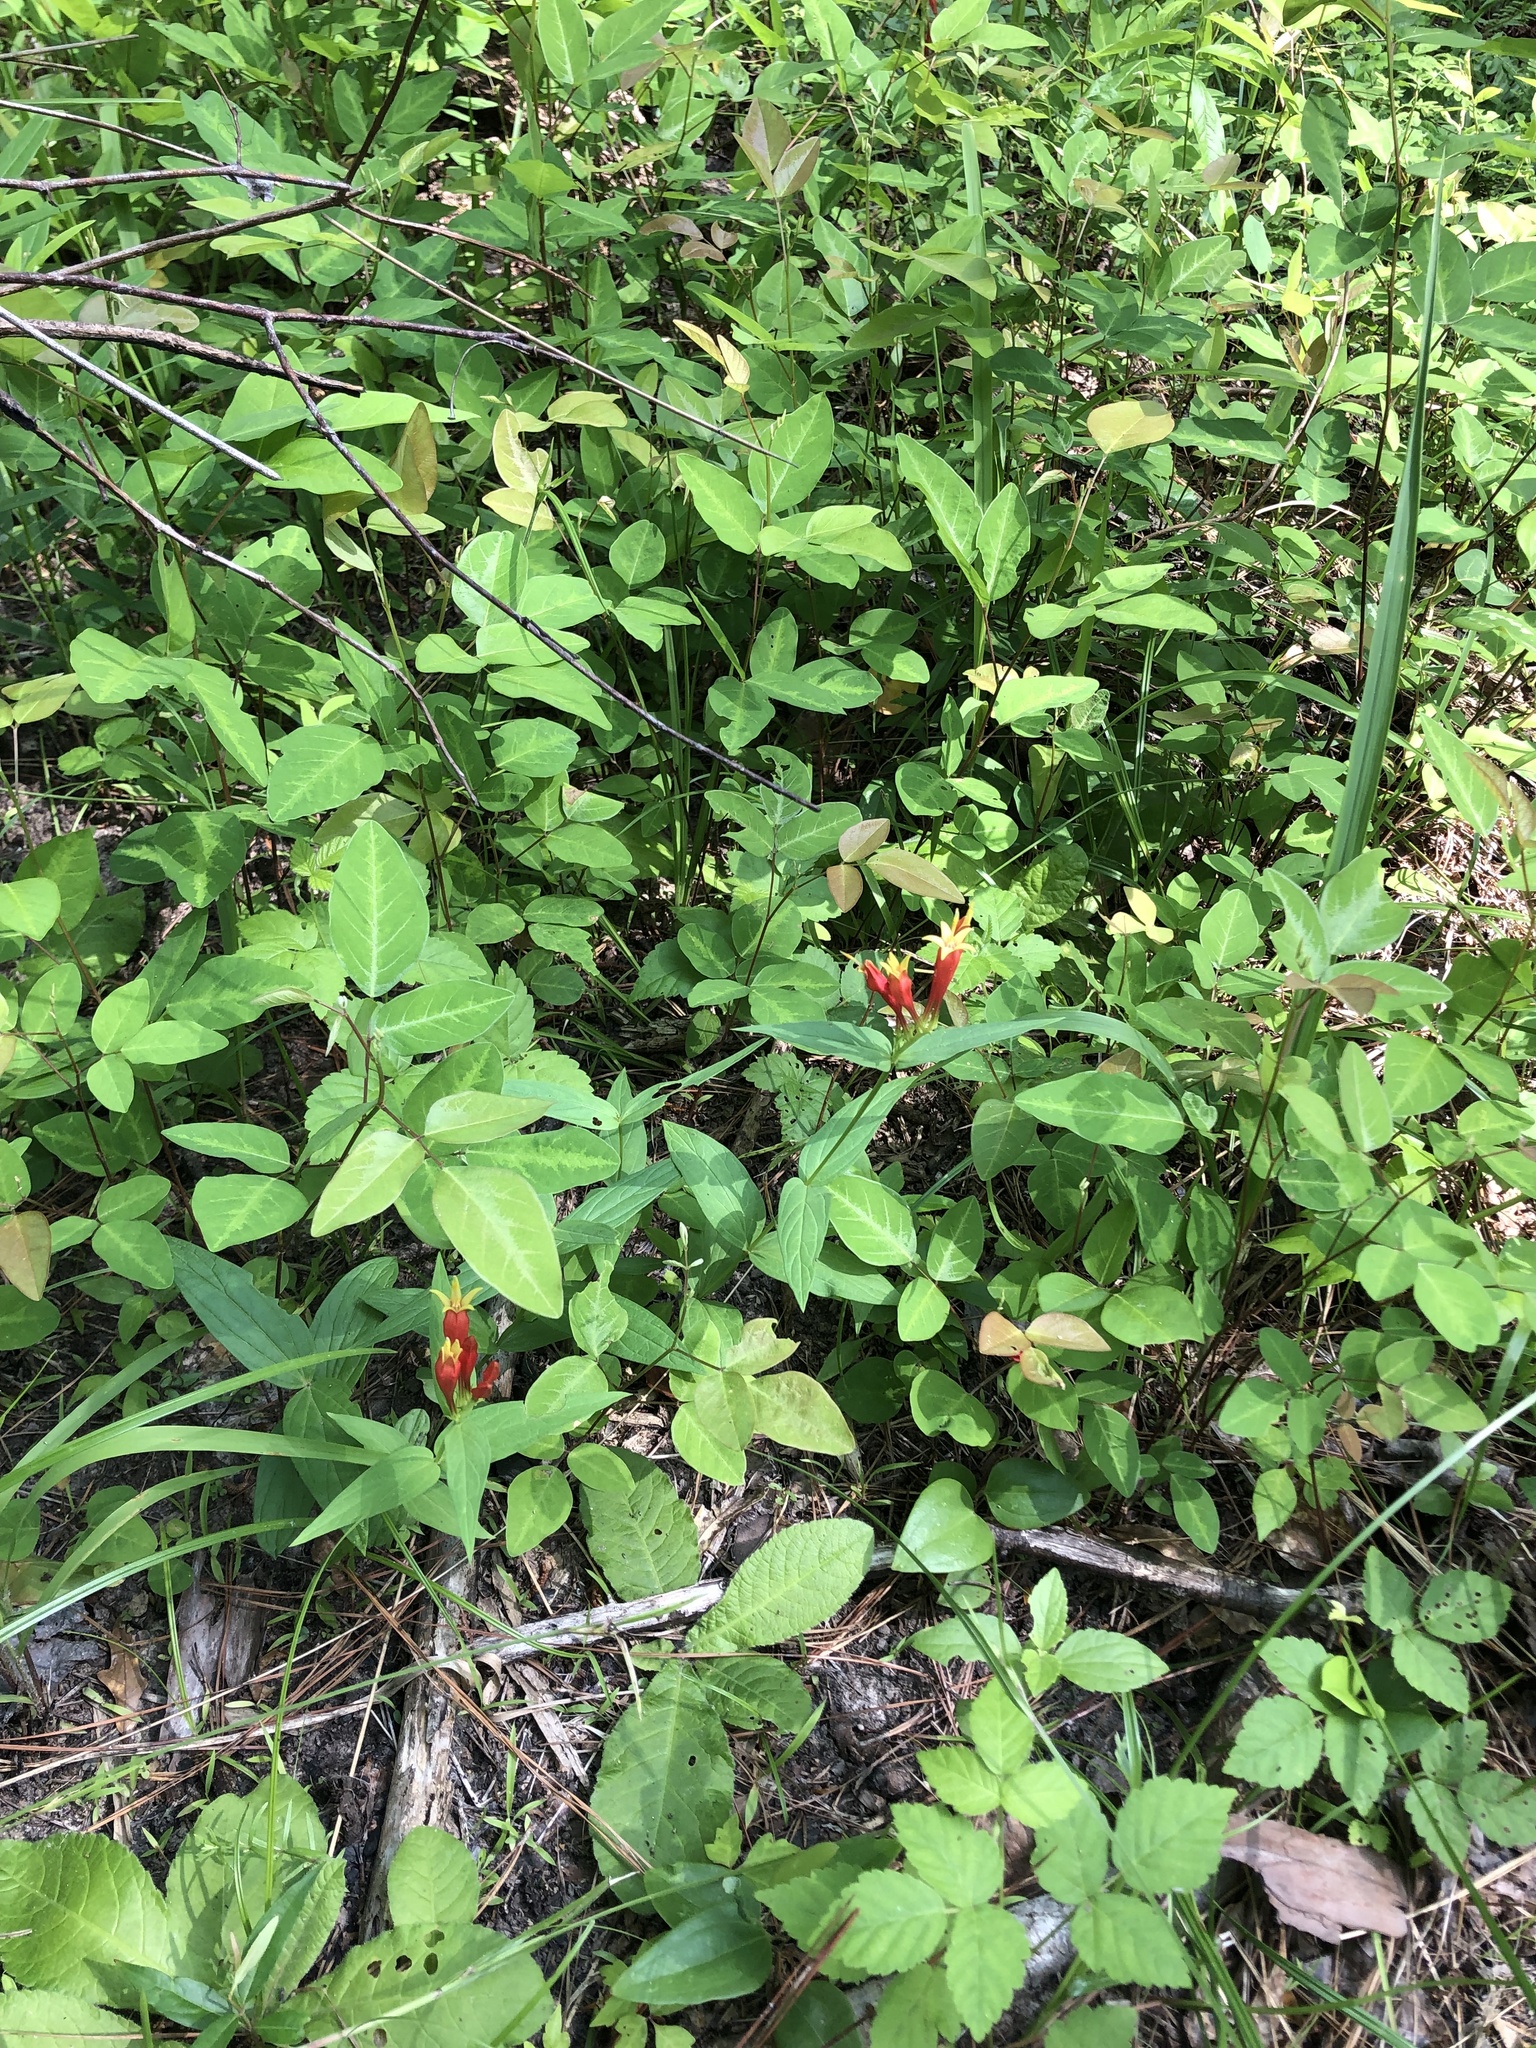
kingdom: Plantae
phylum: Tracheophyta
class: Magnoliopsida
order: Gentianales
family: Loganiaceae
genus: Spigelia
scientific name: Spigelia marilandica
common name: Indian-pink
